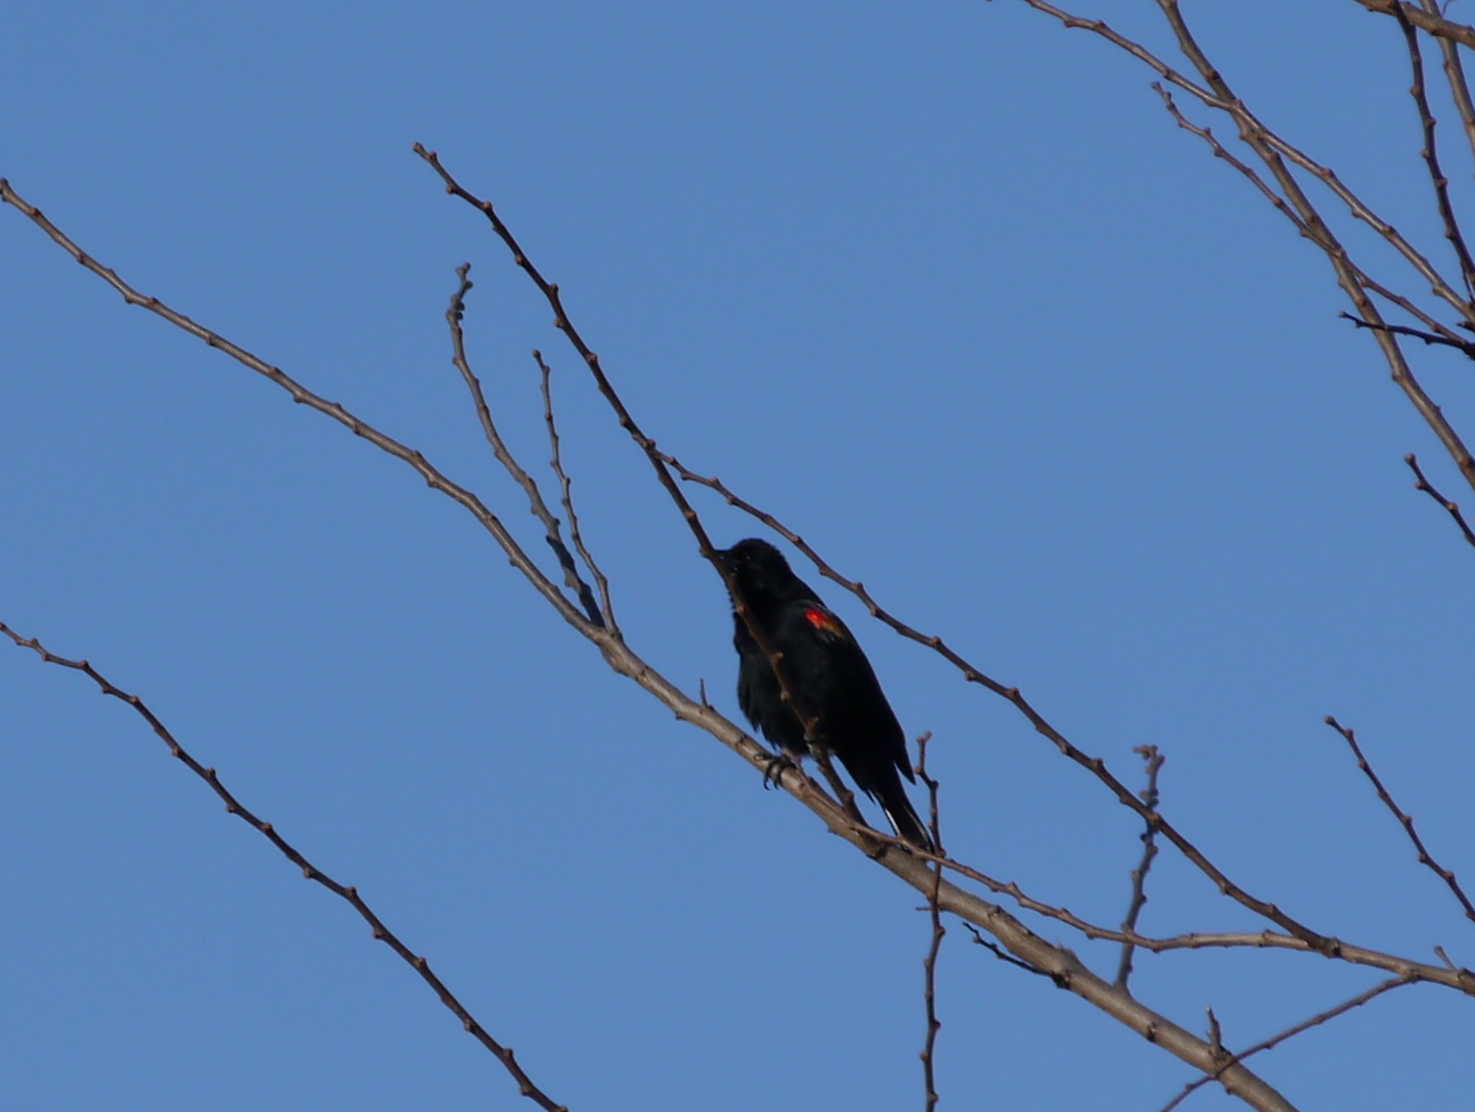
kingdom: Animalia
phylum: Chordata
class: Aves
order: Passeriformes
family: Icteridae
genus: Agelaius
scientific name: Agelaius phoeniceus
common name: Red-winged blackbird
